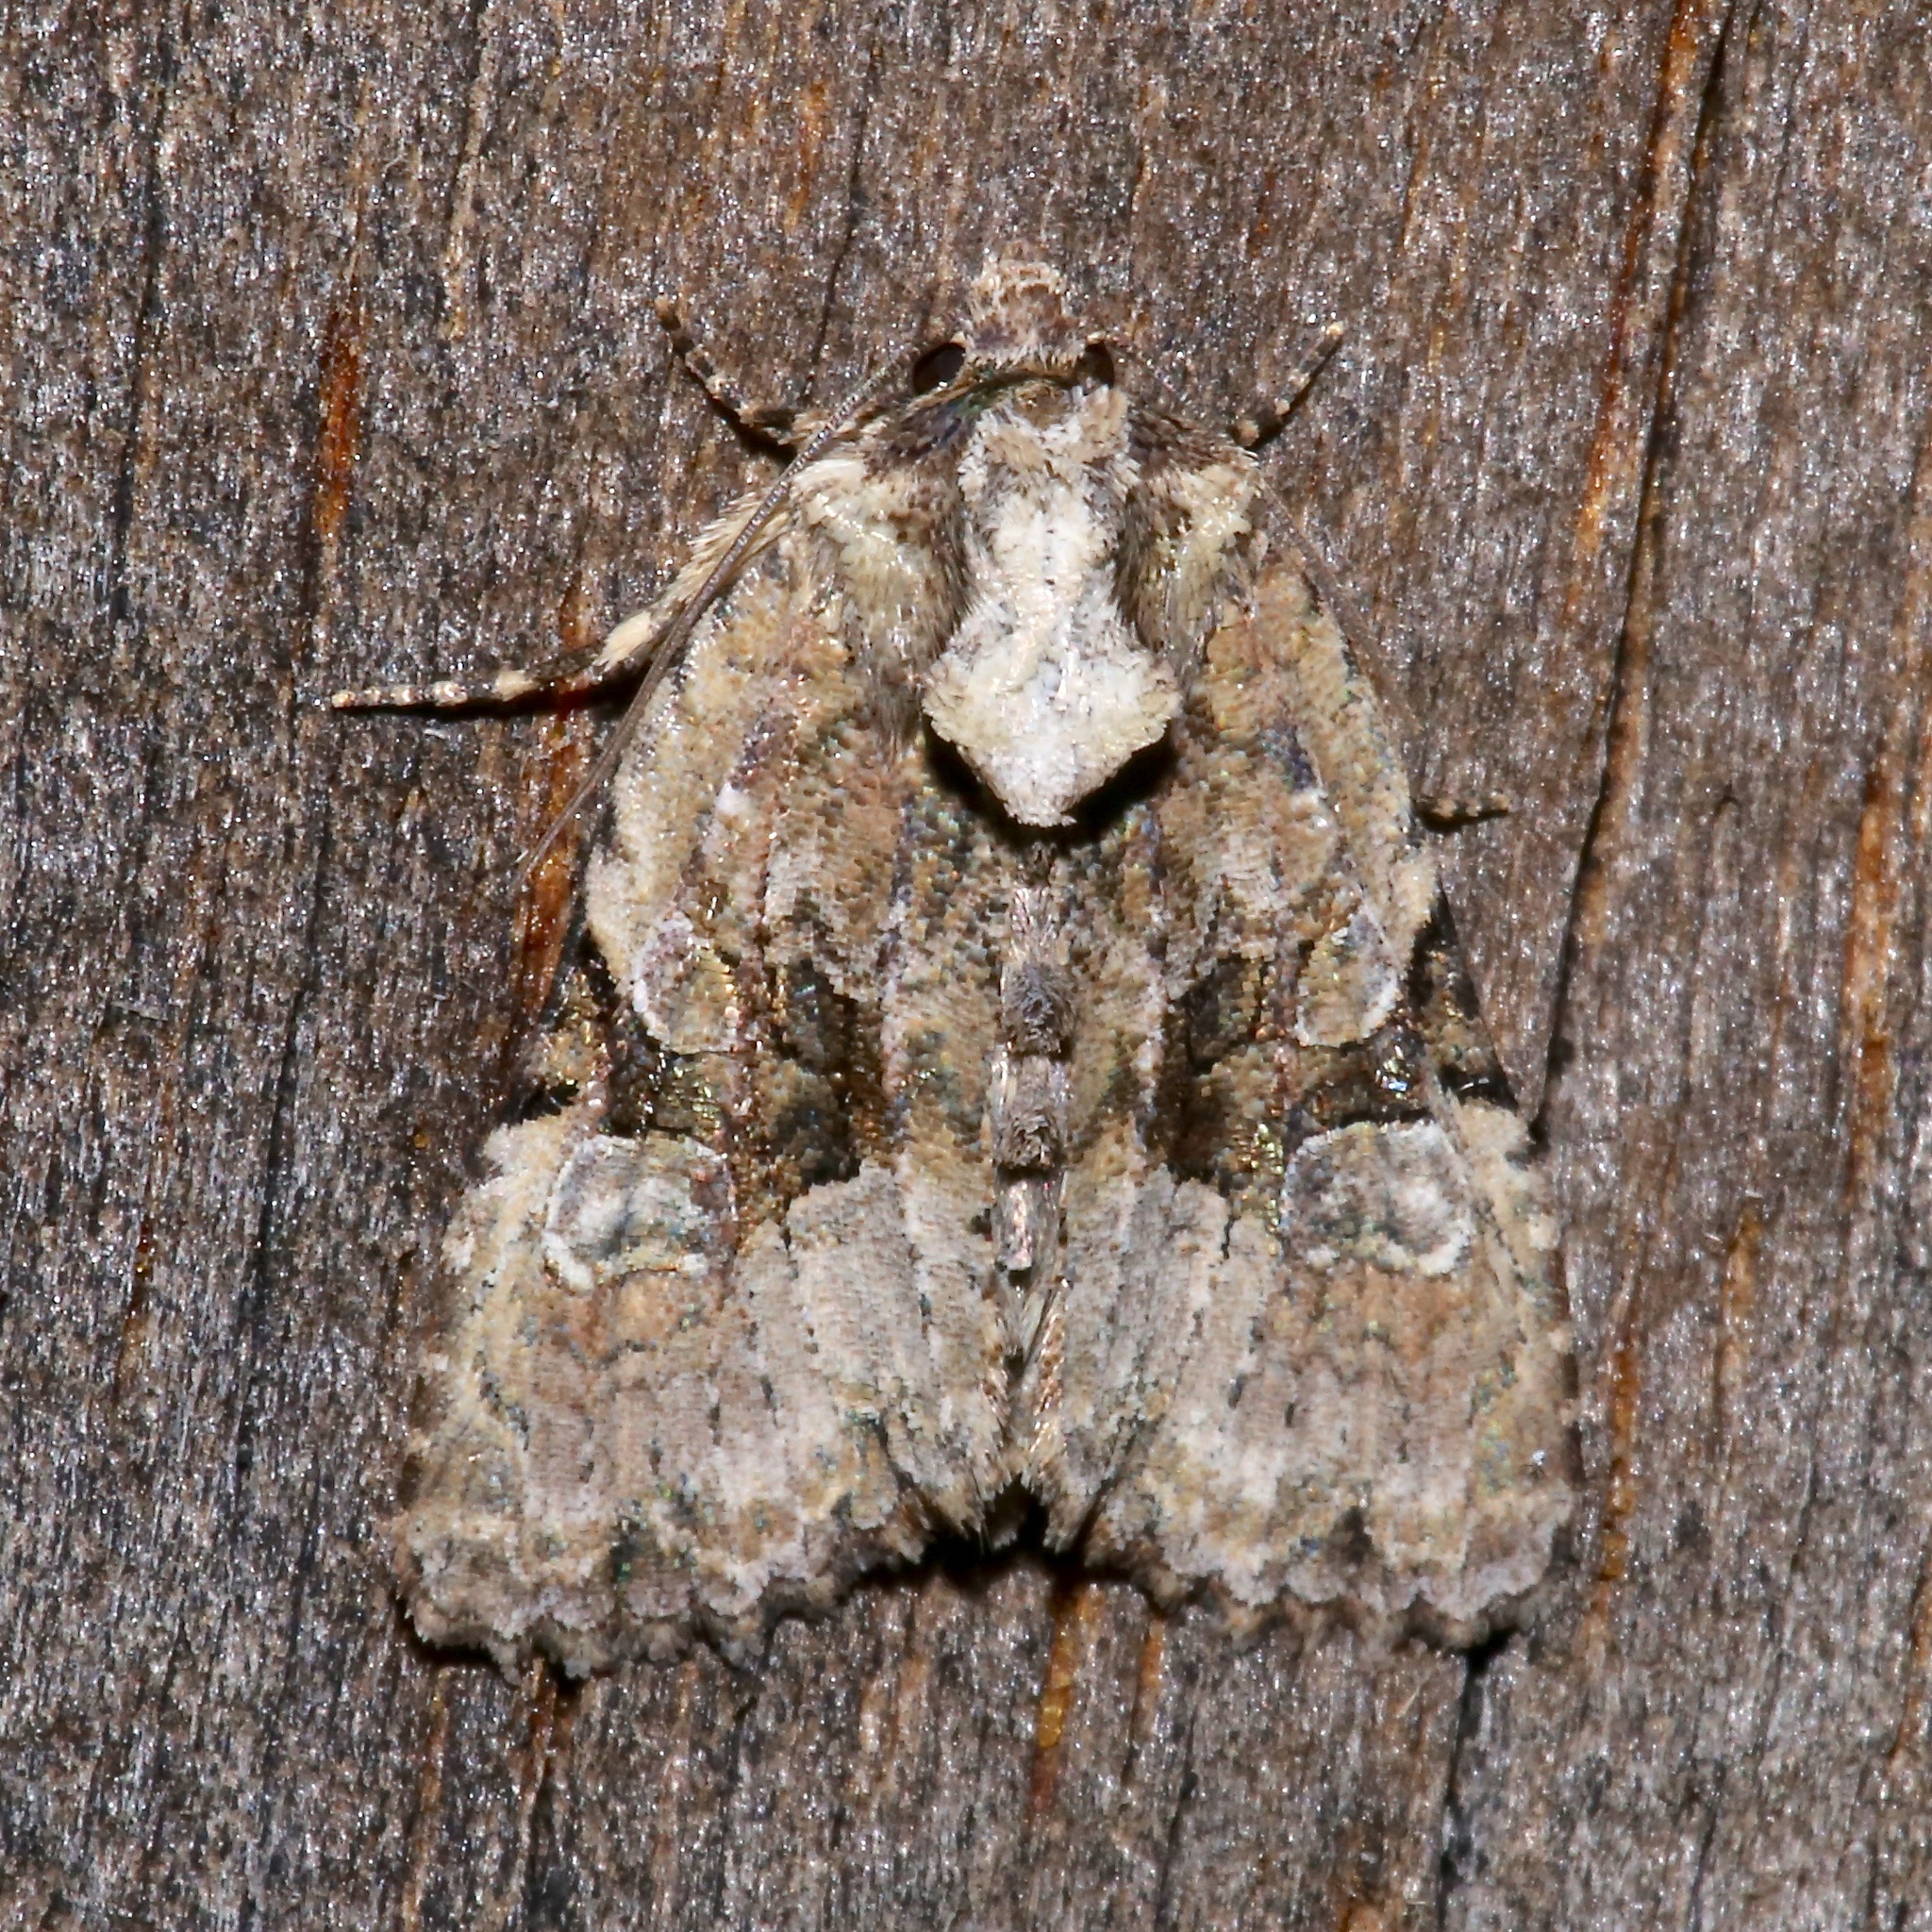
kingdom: Animalia
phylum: Arthropoda
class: Insecta
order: Lepidoptera
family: Noctuidae
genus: Oligia
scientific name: Oligia modica
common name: Black-banded brocade
